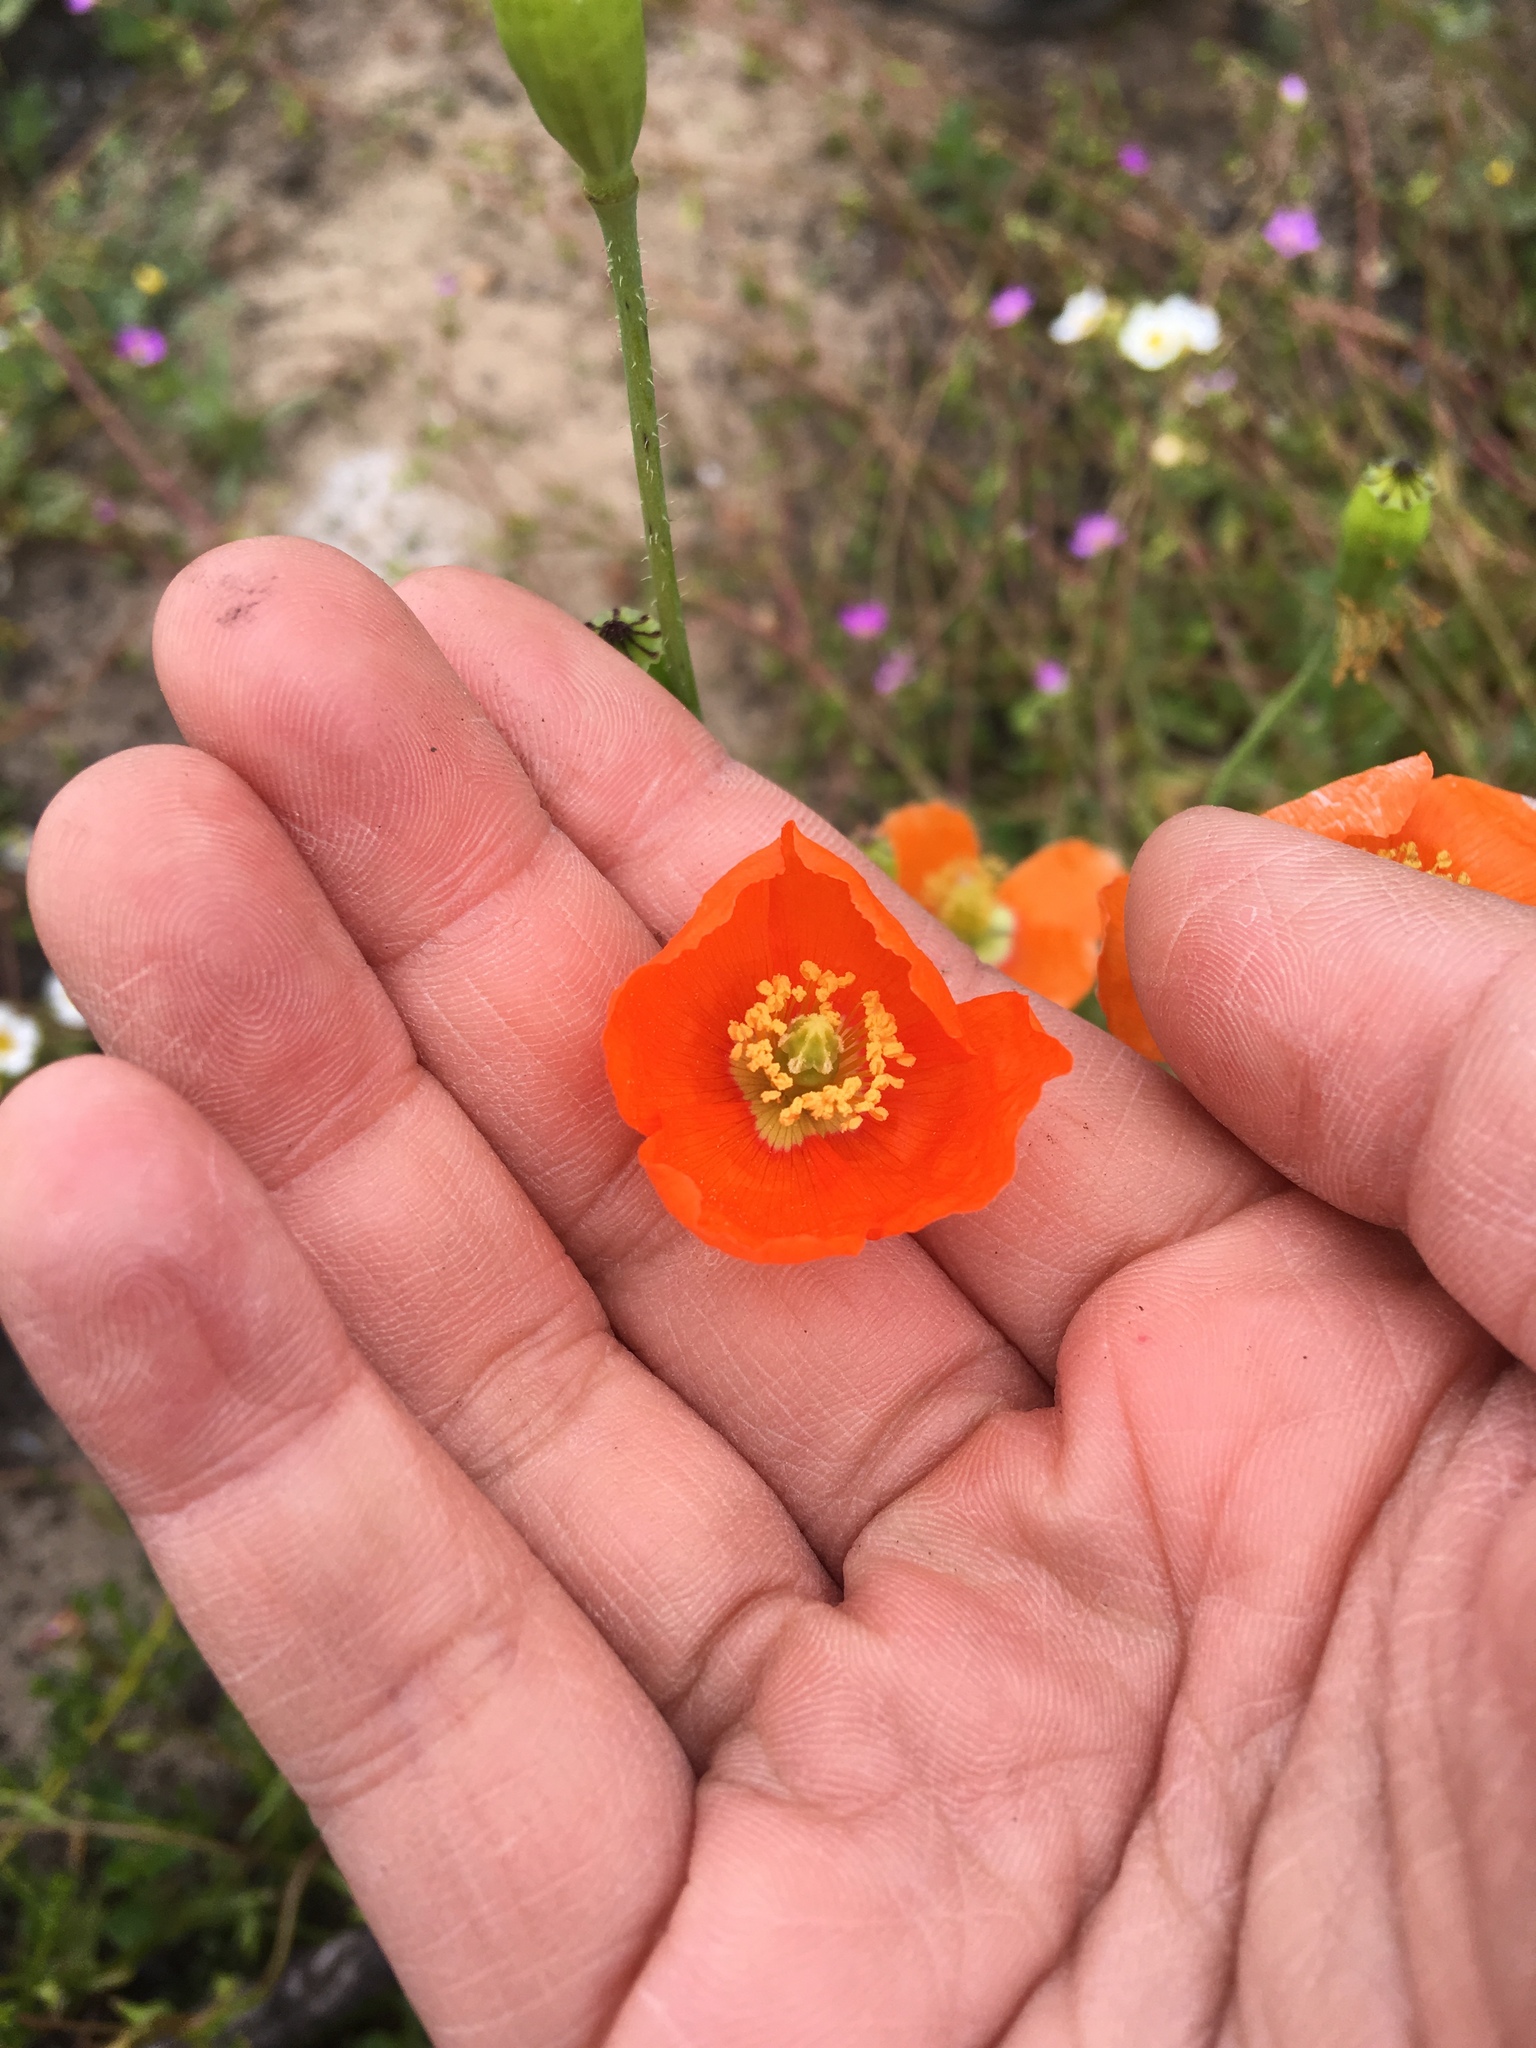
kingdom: Plantae
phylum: Tracheophyta
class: Magnoliopsida
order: Ranunculales
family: Papaveraceae
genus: Papaver
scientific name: Papaver californicum
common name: Fire poppy
